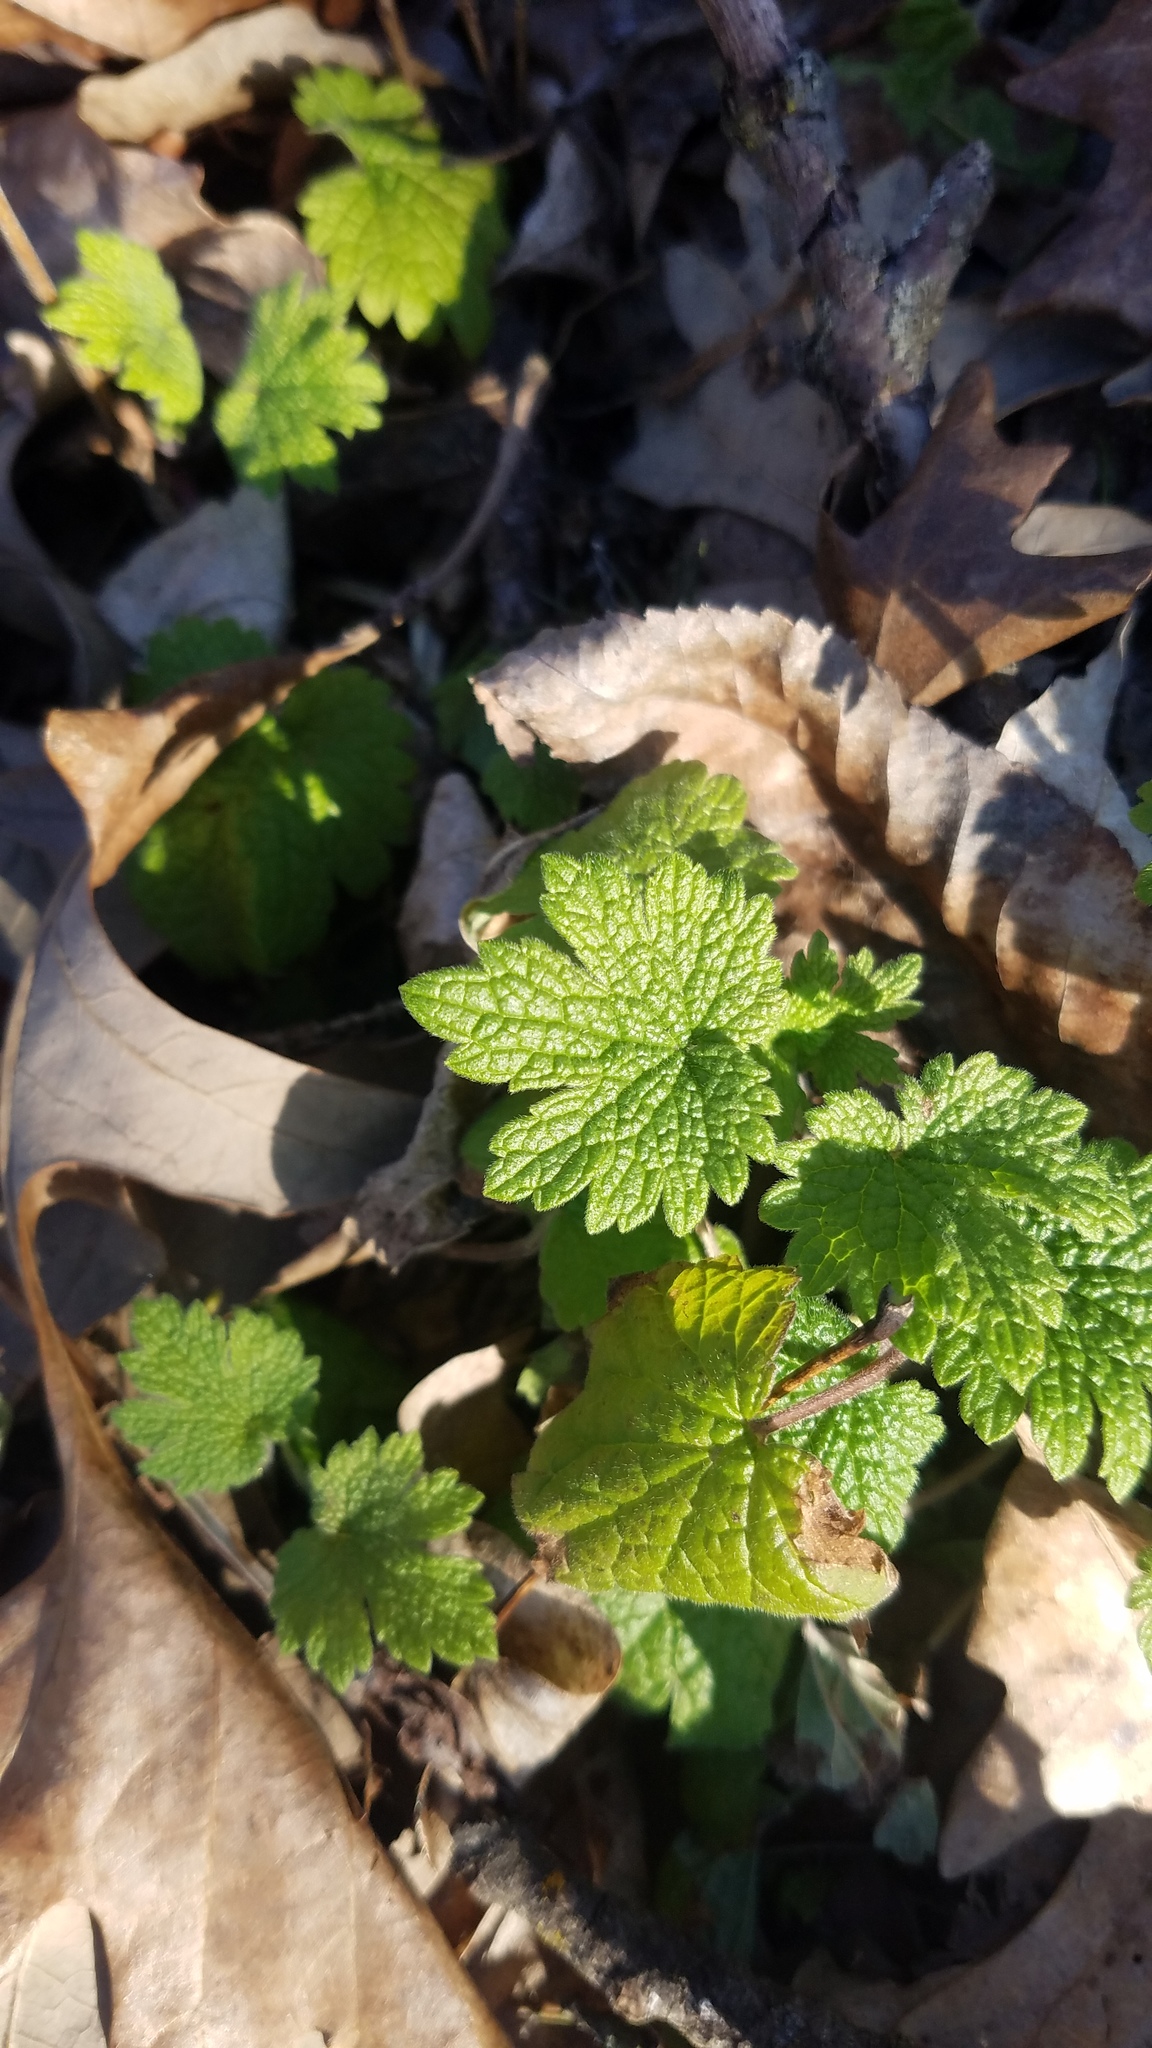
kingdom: Plantae
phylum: Tracheophyta
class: Magnoliopsida
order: Lamiales
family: Lamiaceae
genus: Leonurus
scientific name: Leonurus cardiaca
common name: Motherwort
